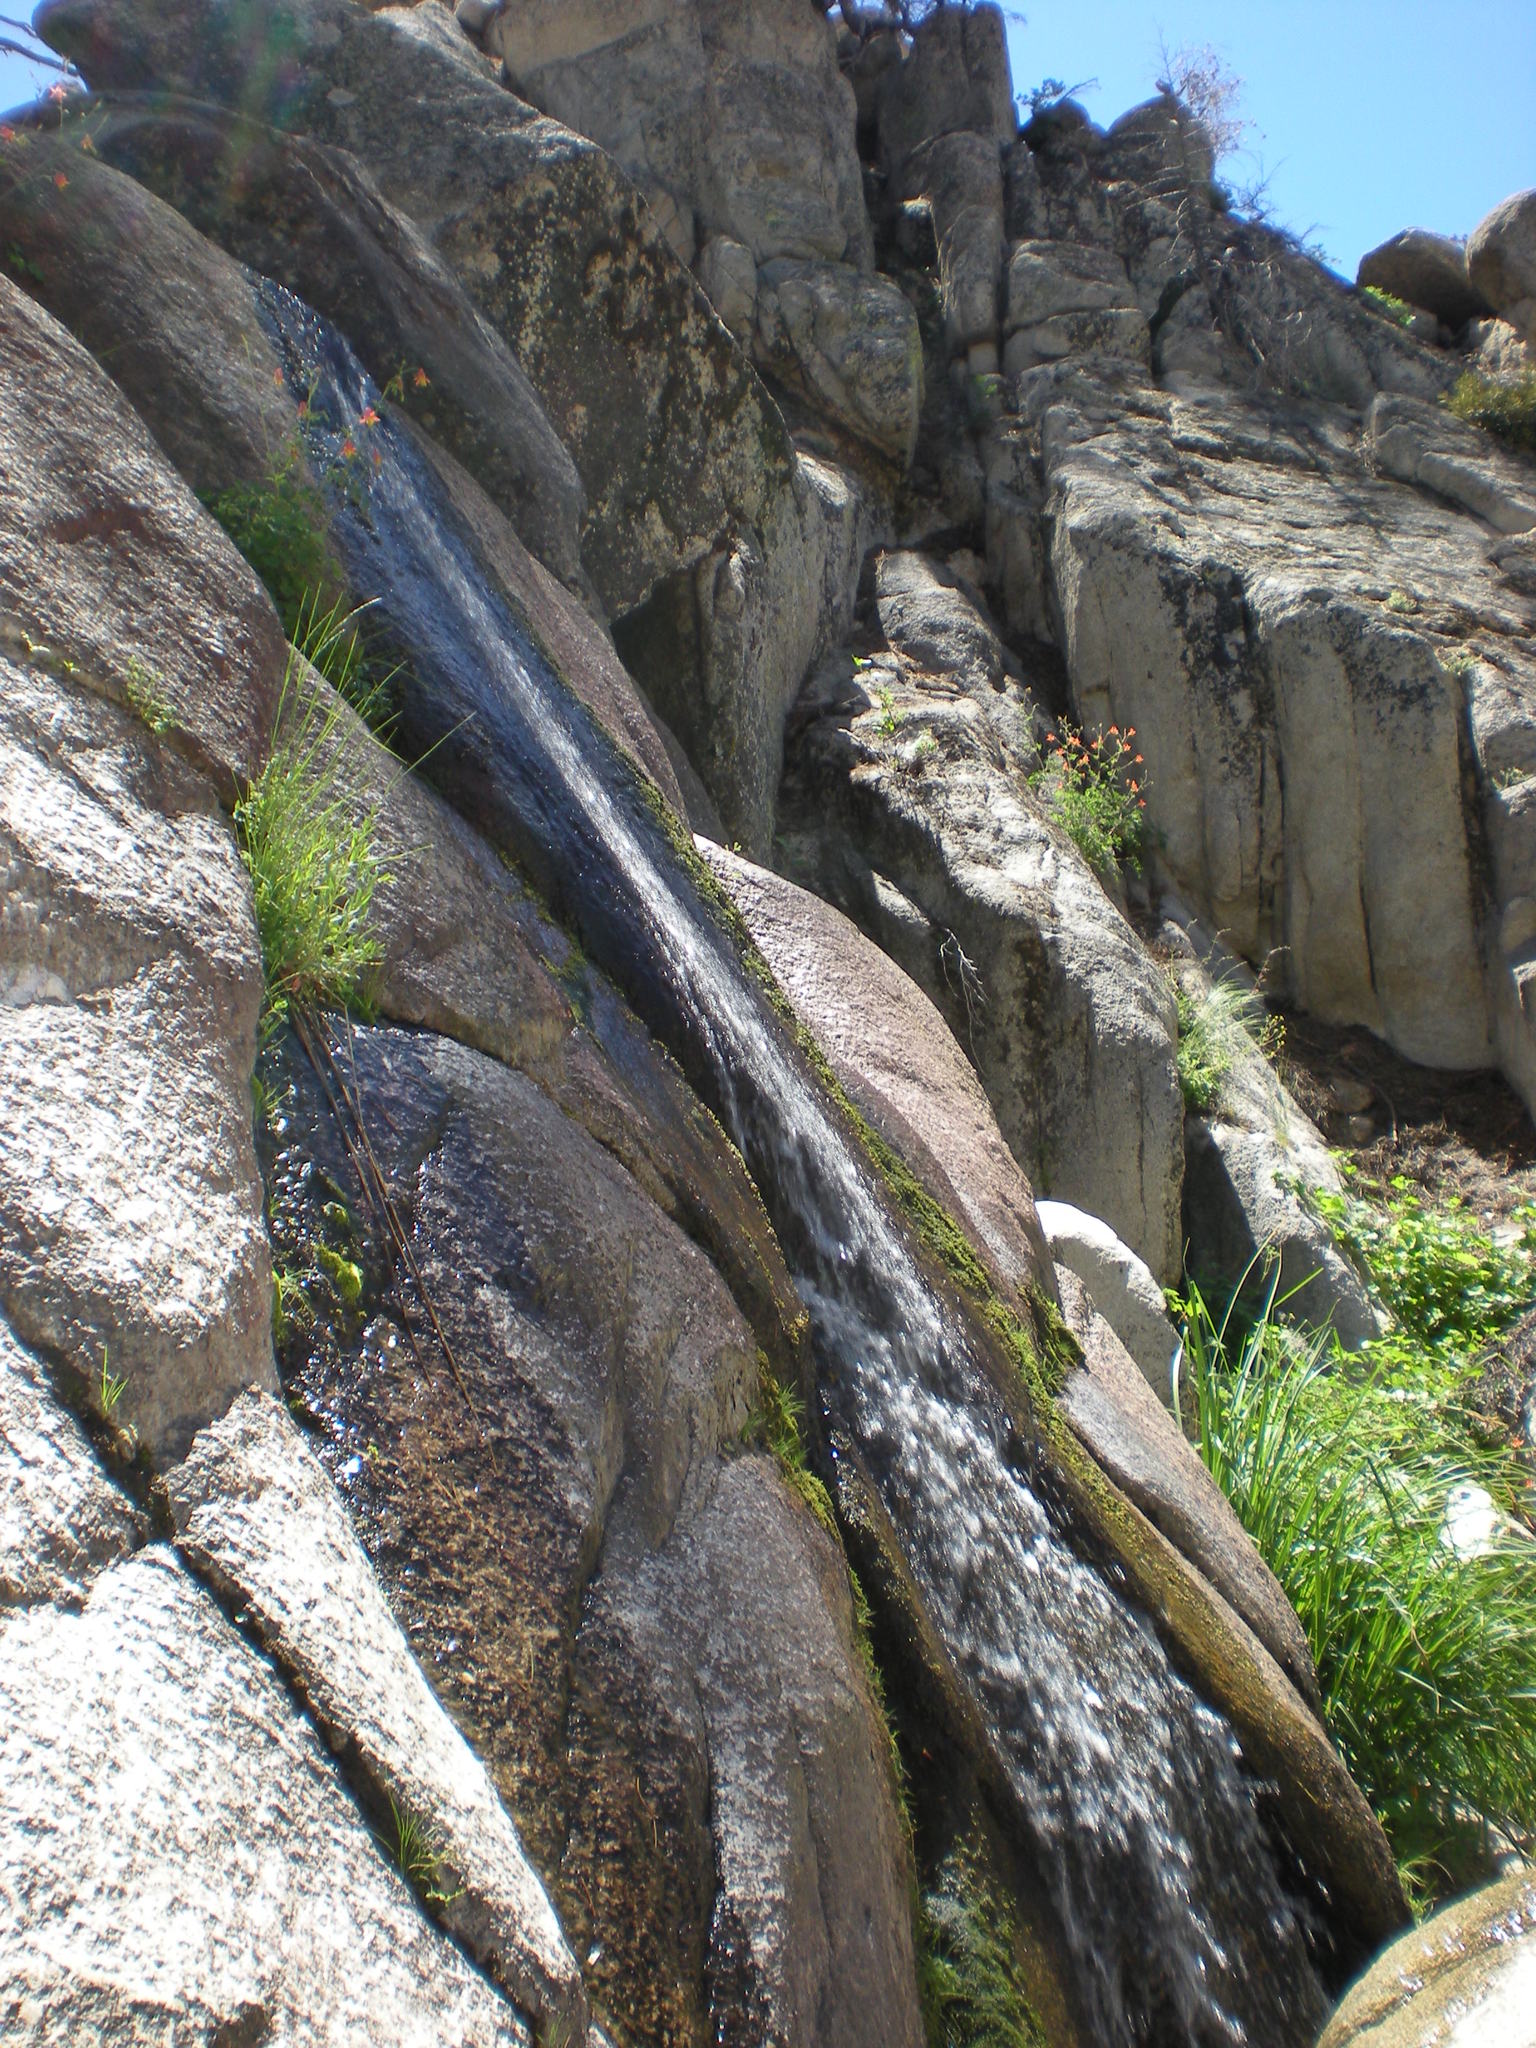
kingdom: Plantae
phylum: Tracheophyta
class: Magnoliopsida
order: Ranunculales
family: Ranunculaceae
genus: Aquilegia
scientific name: Aquilegia formosa
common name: Sitka columbine
